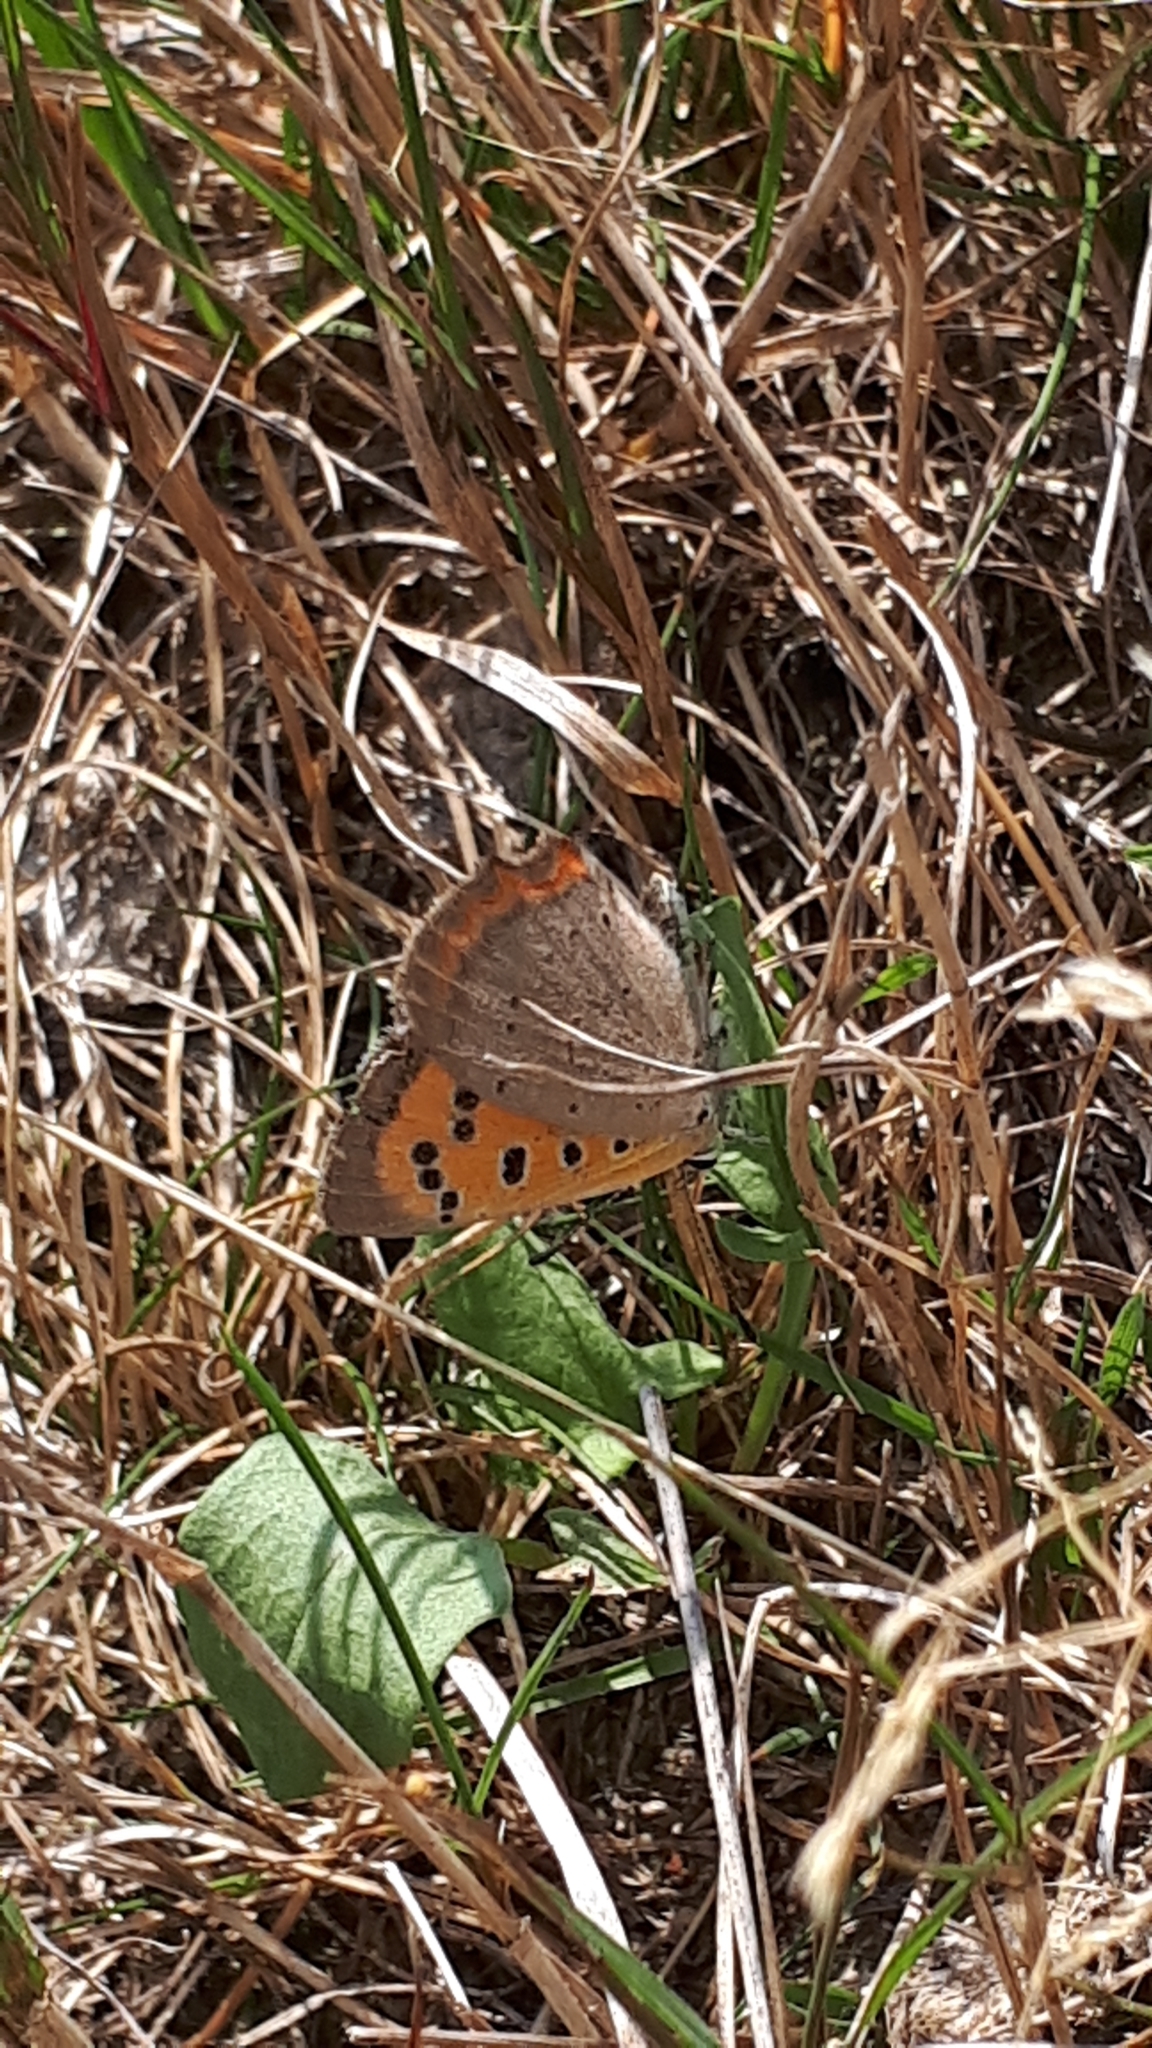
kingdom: Animalia
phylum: Arthropoda
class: Insecta
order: Lepidoptera
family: Lycaenidae
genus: Lycaena
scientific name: Lycaena phlaeas
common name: Small copper
